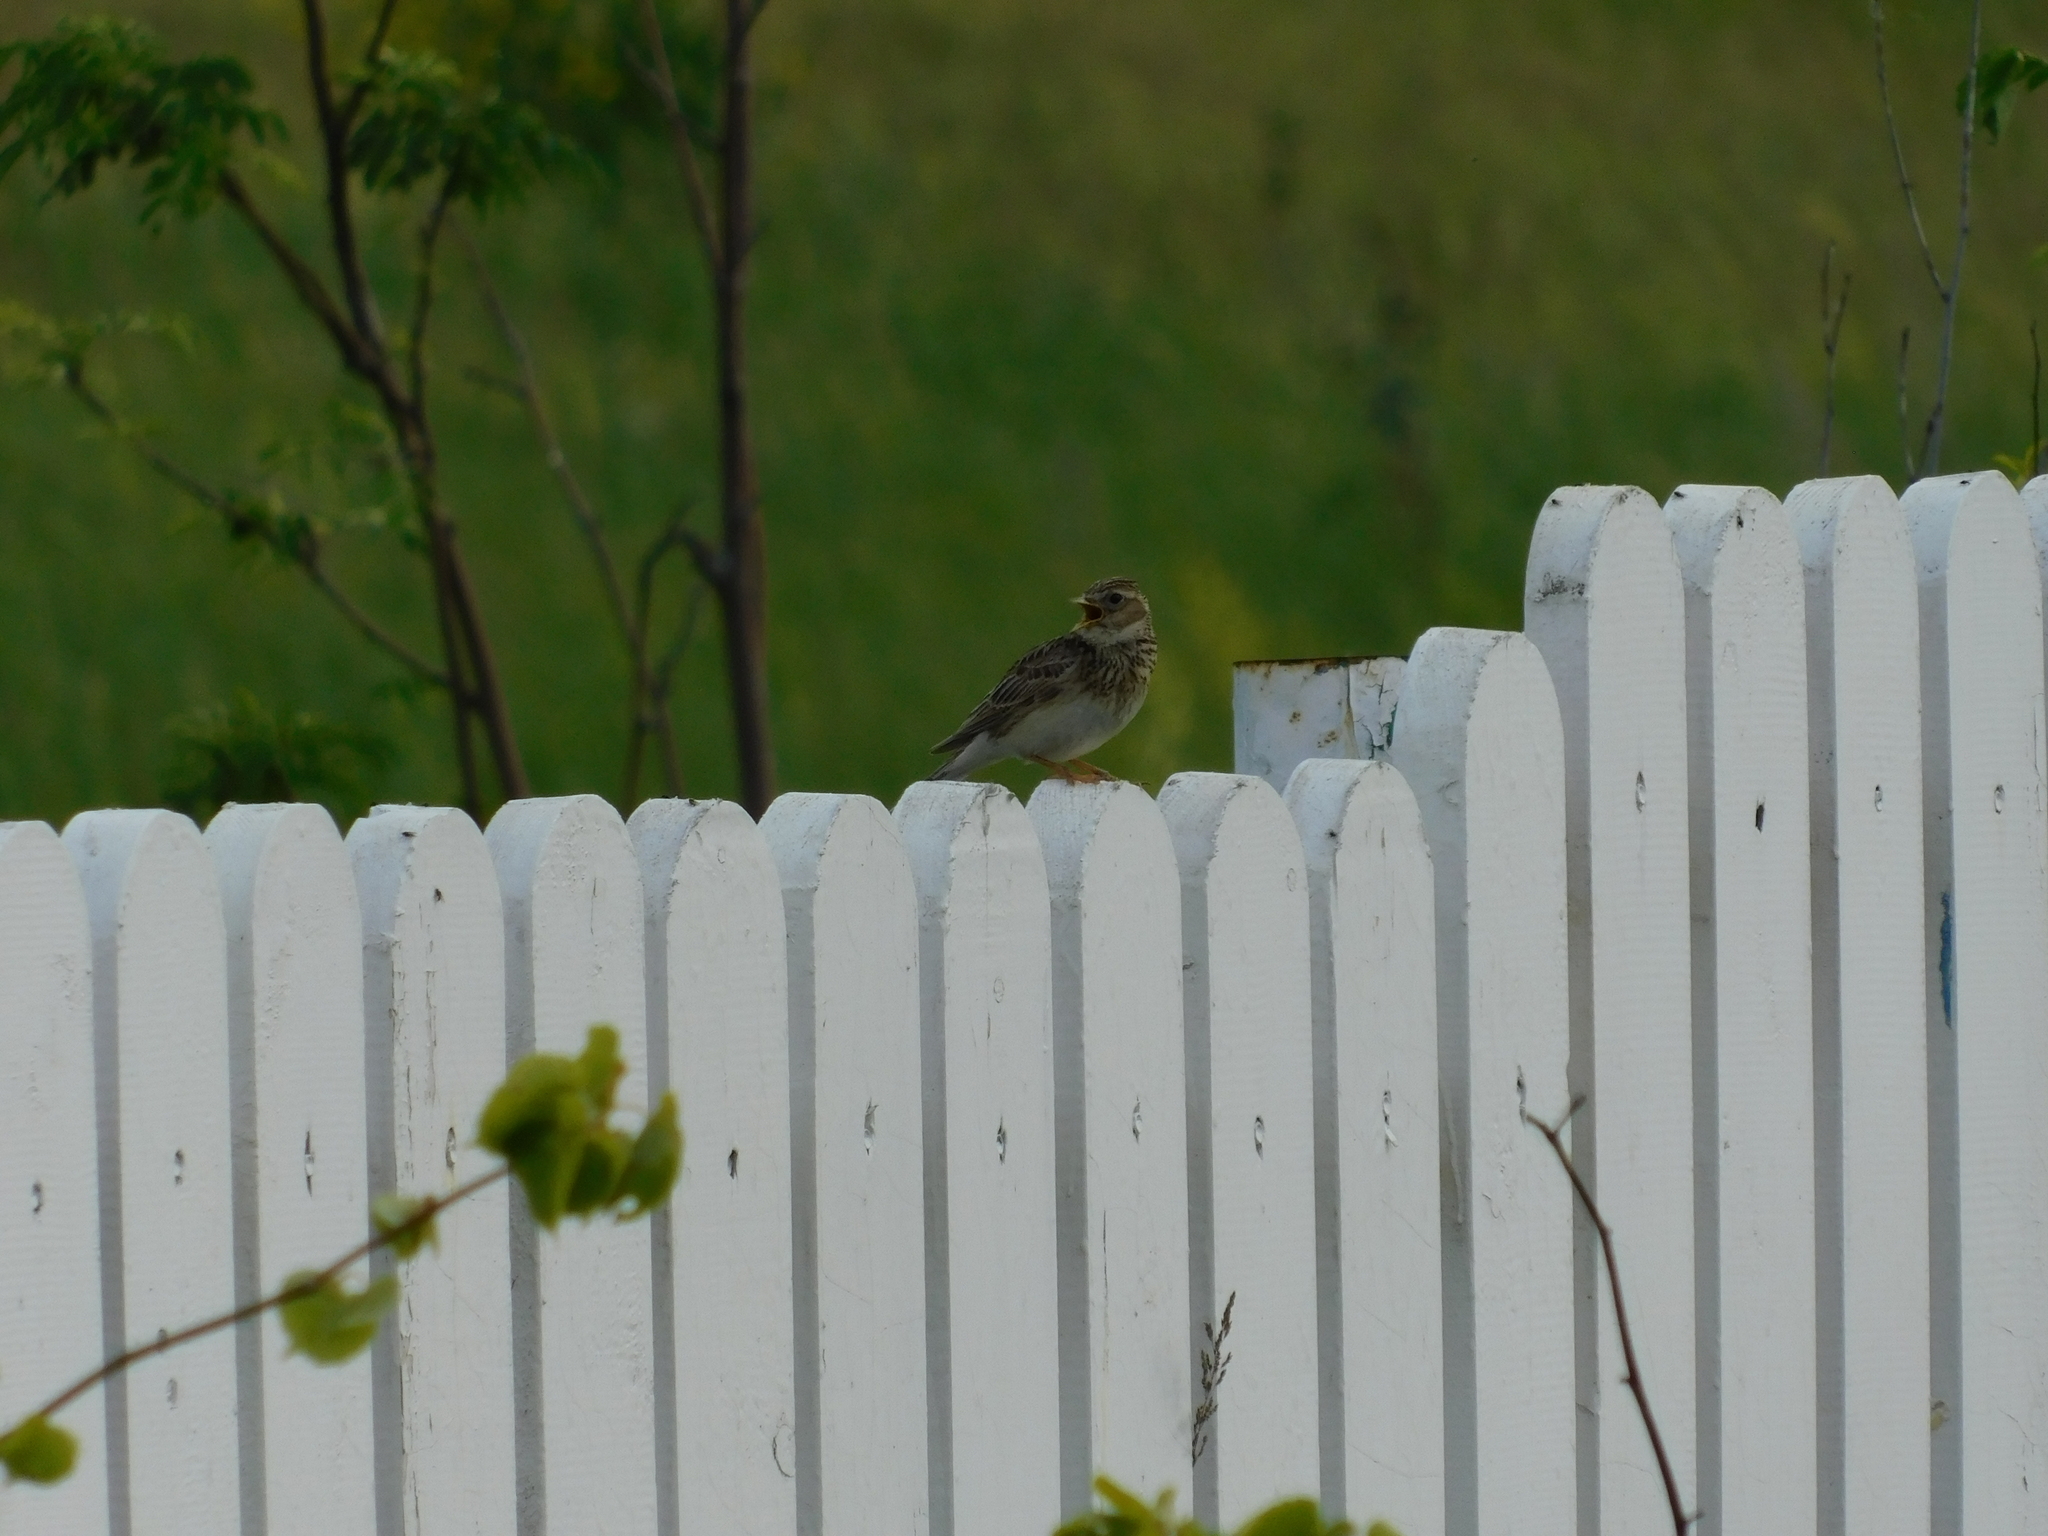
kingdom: Animalia
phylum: Chordata
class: Aves
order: Passeriformes
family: Alaudidae
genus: Alauda
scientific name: Alauda arvensis
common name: Eurasian skylark
